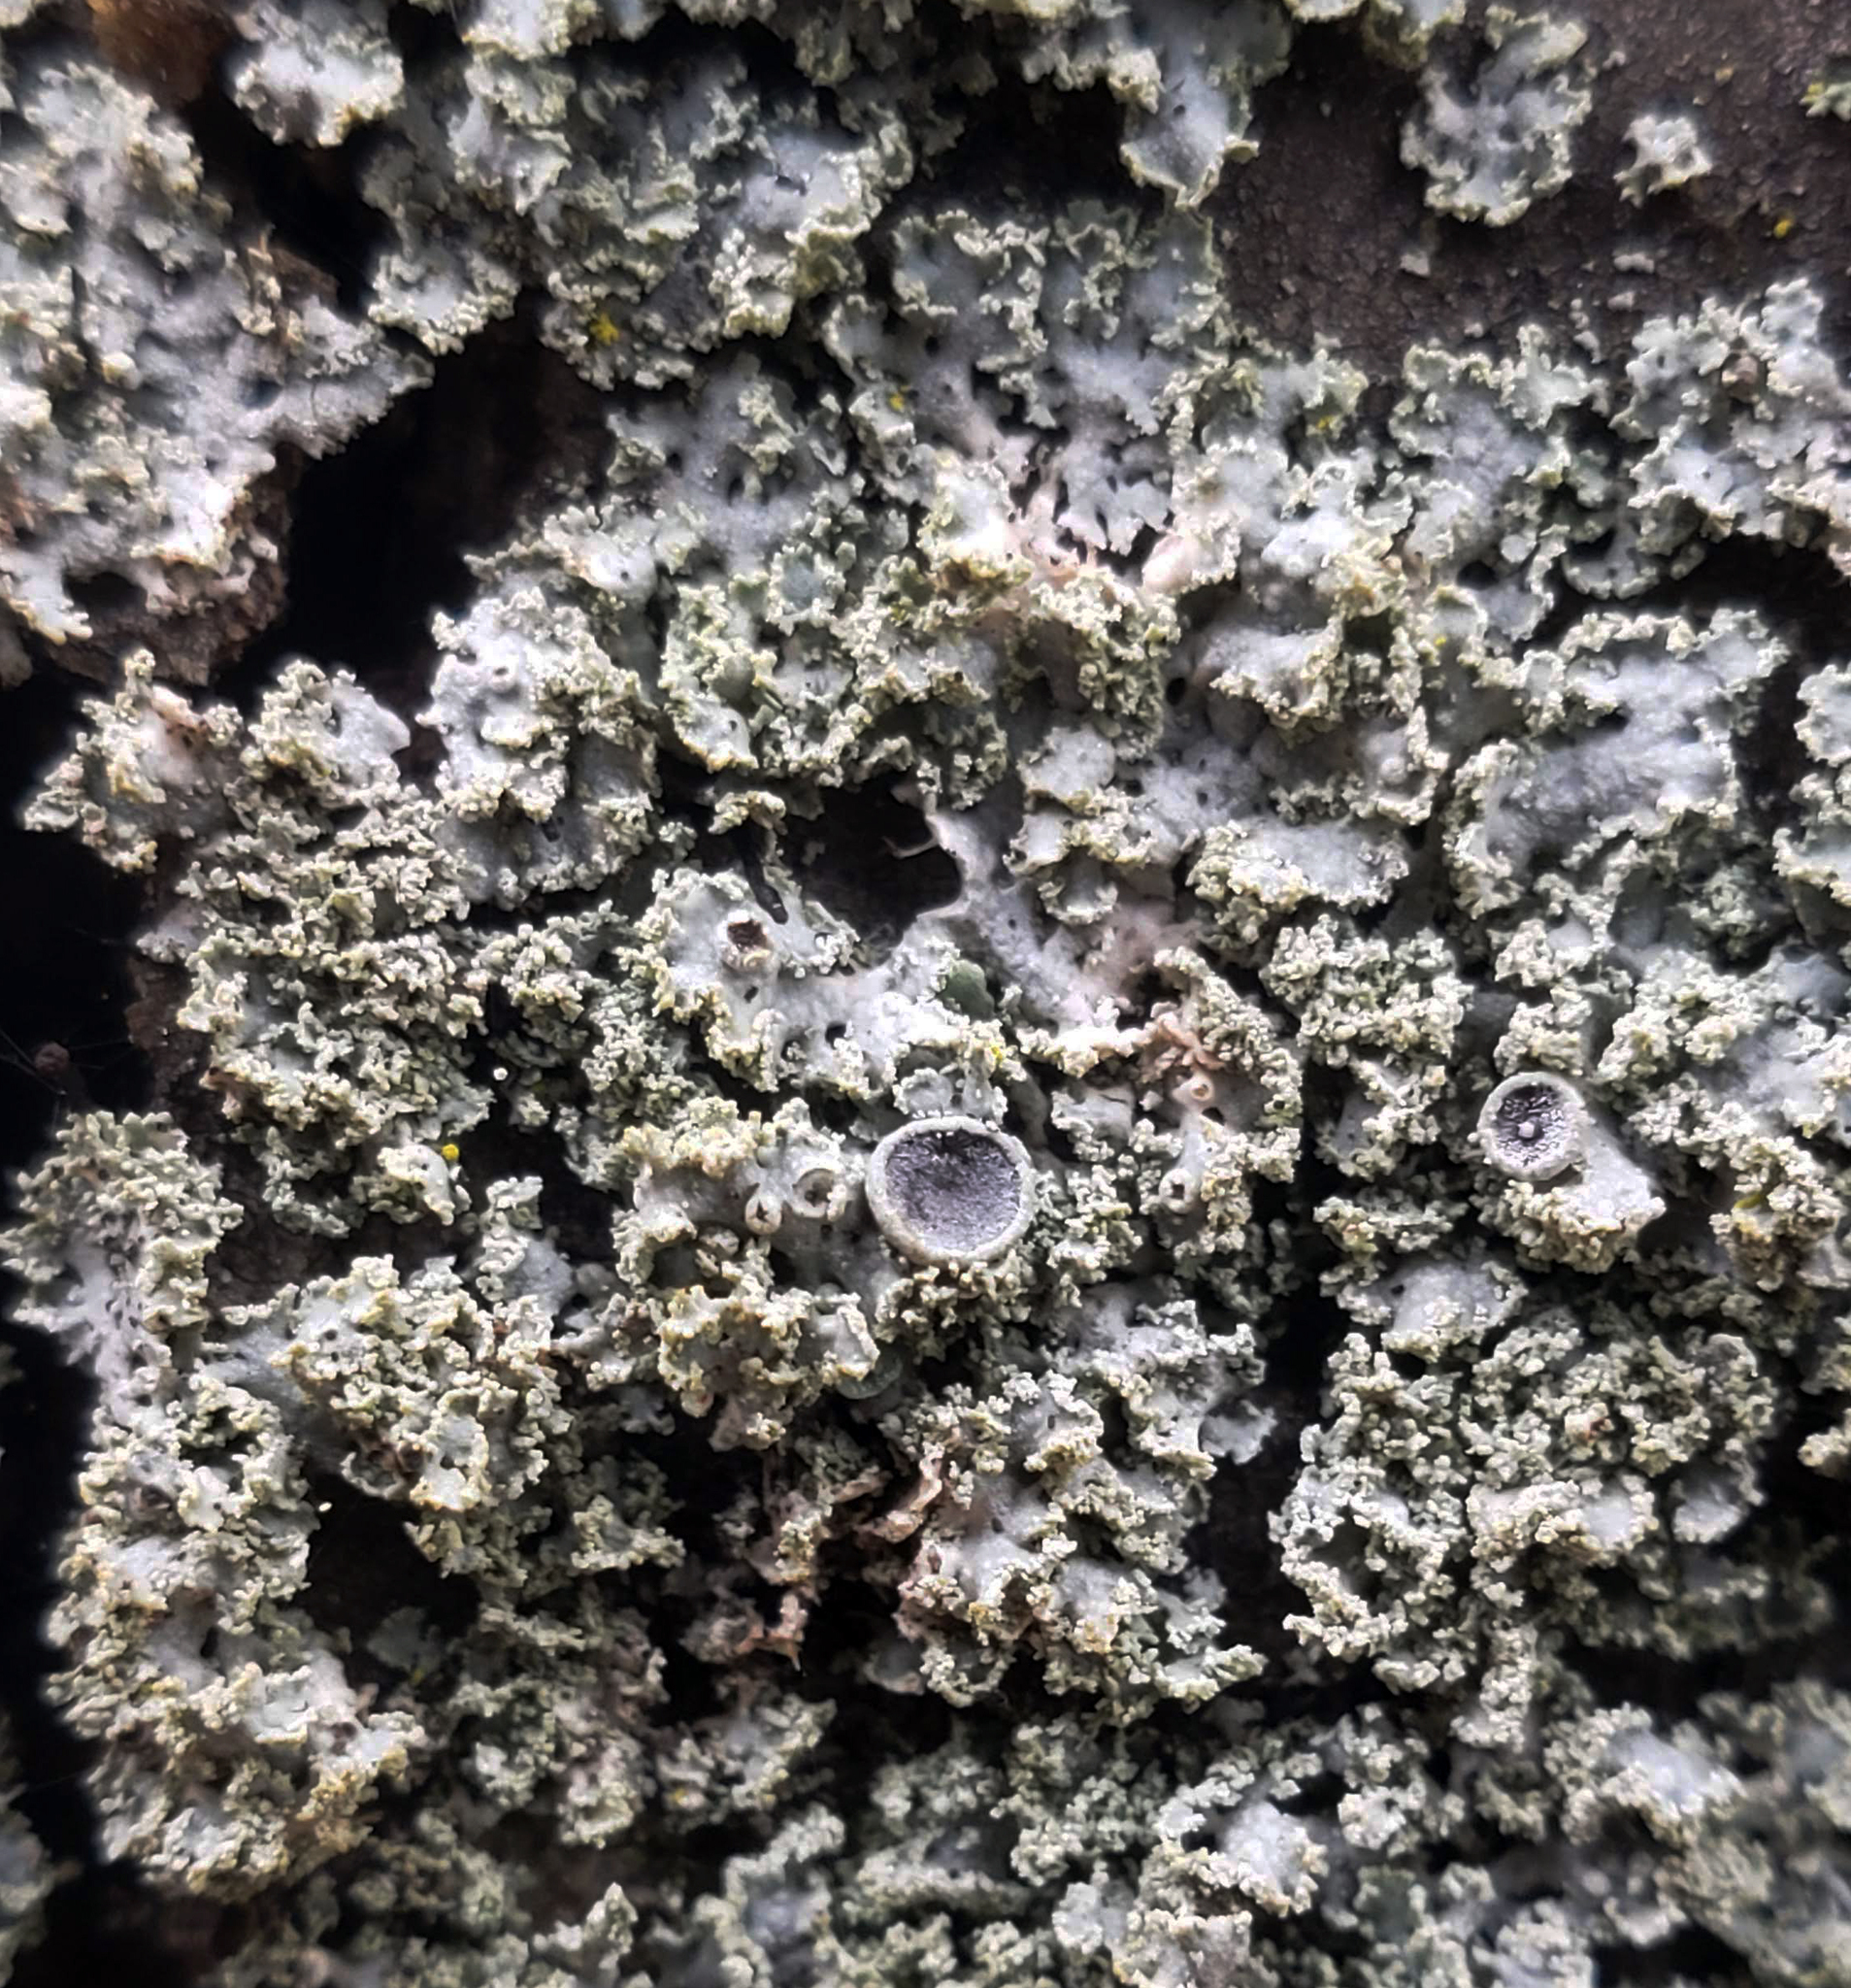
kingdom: Fungi
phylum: Ascomycota
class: Lecanoromycetes
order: Caliciales
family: Physciaceae
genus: Physcia
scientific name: Physcia millegrana
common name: Rosette lichen
